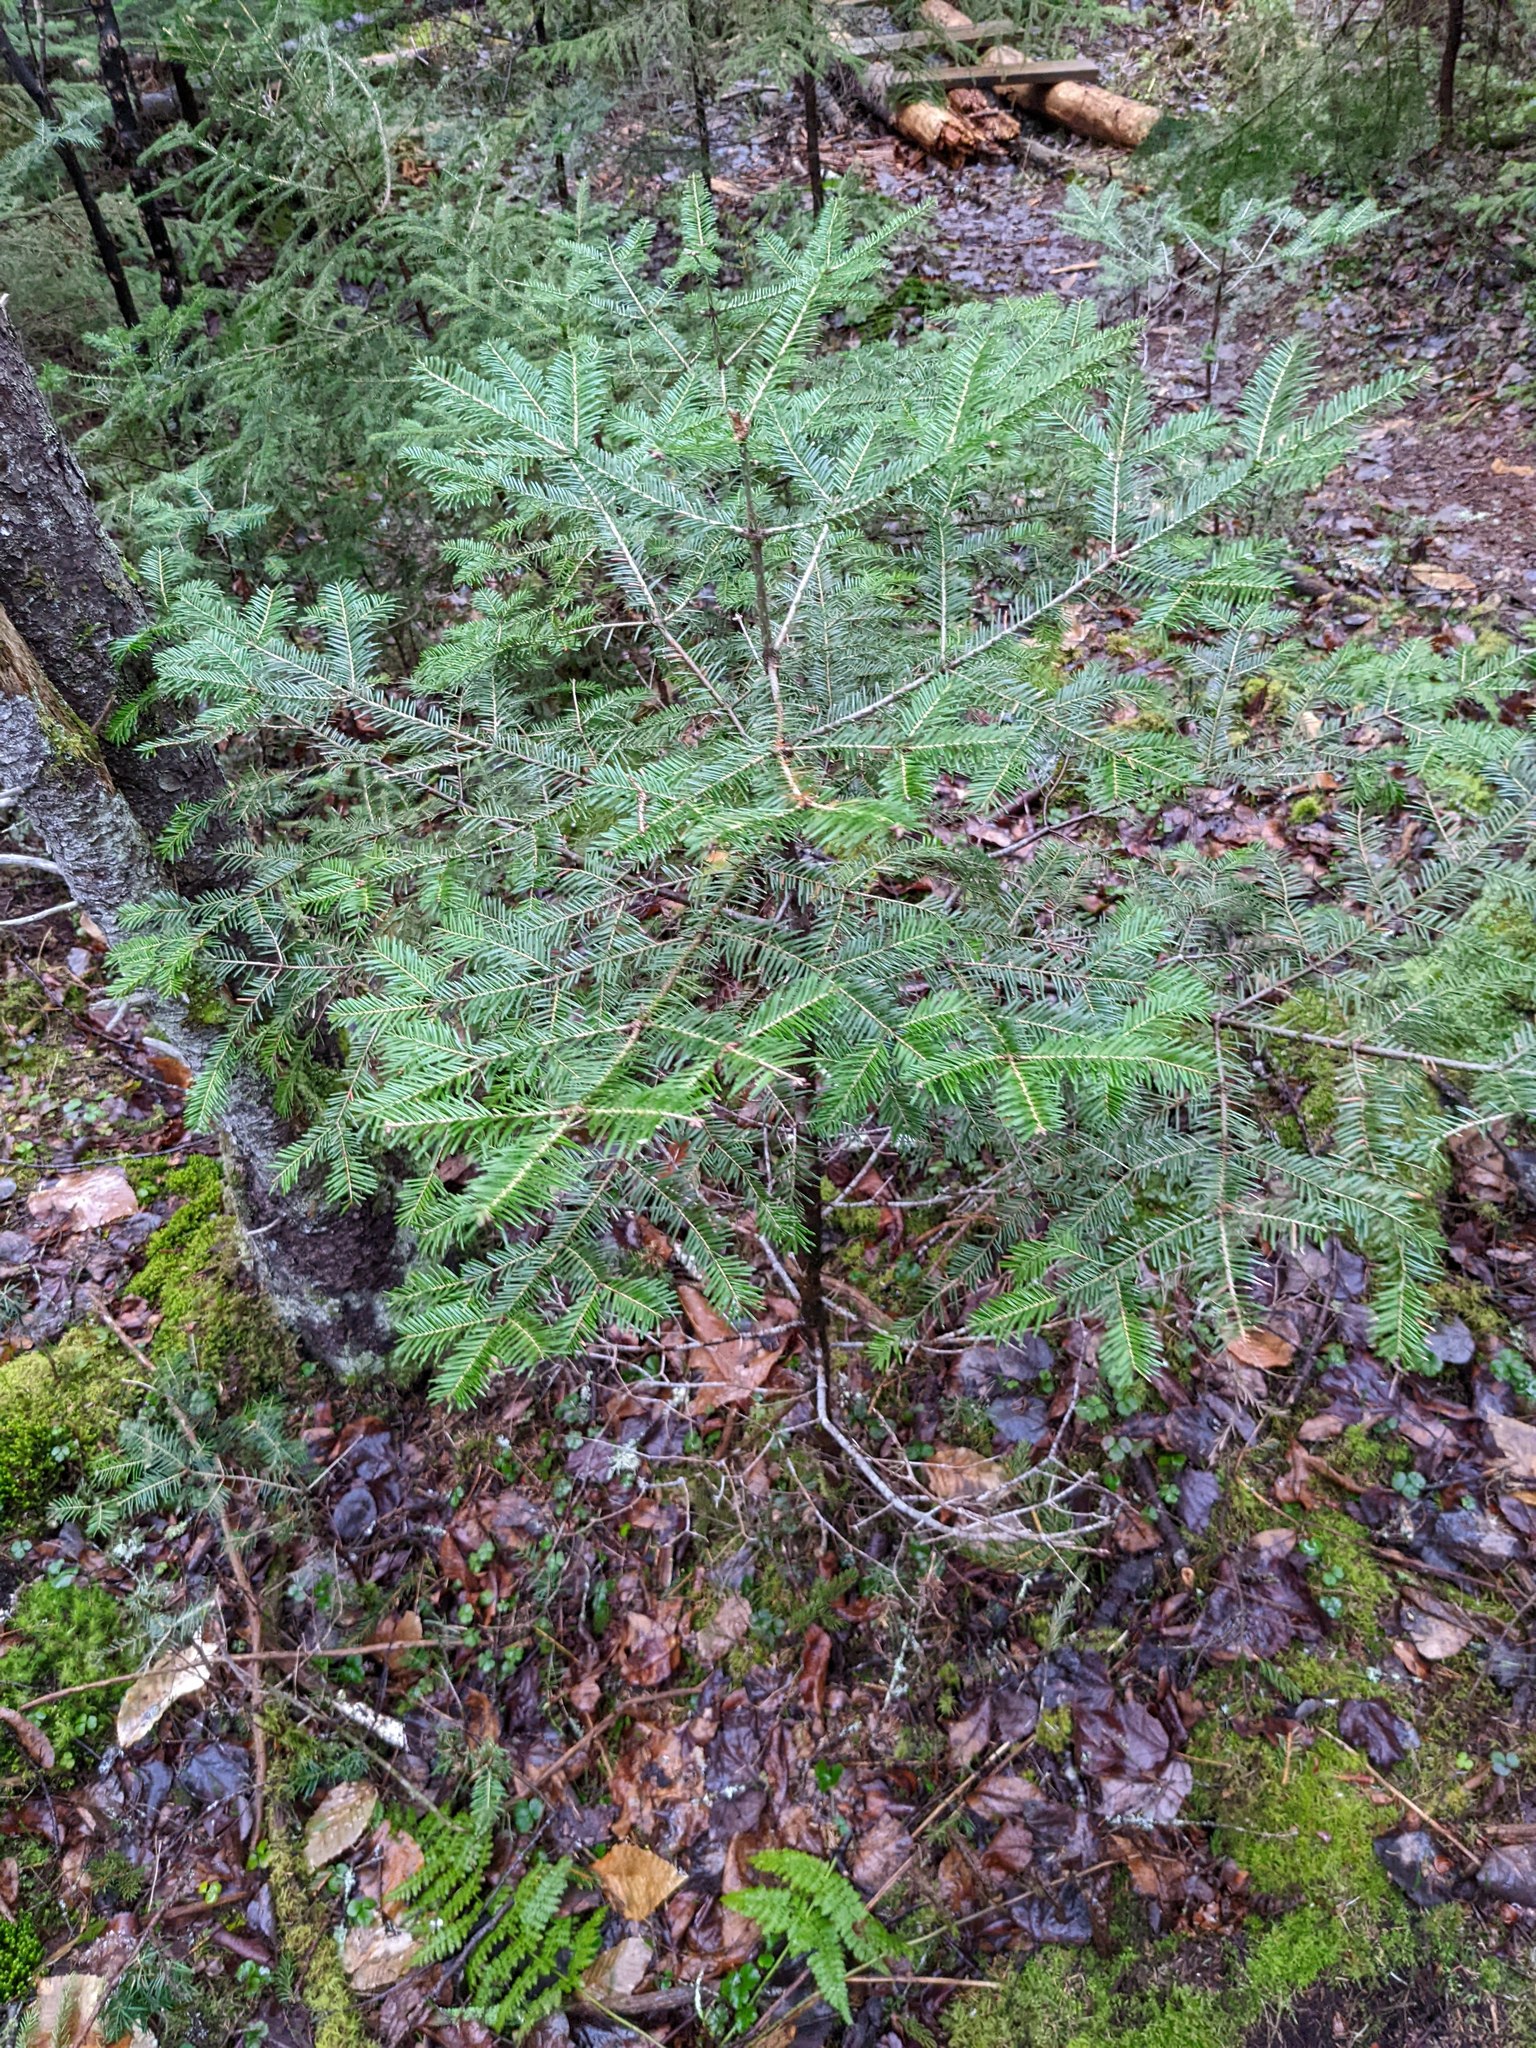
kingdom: Plantae
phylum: Tracheophyta
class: Pinopsida
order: Pinales
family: Pinaceae
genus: Abies
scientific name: Abies balsamea
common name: Balsam fir
